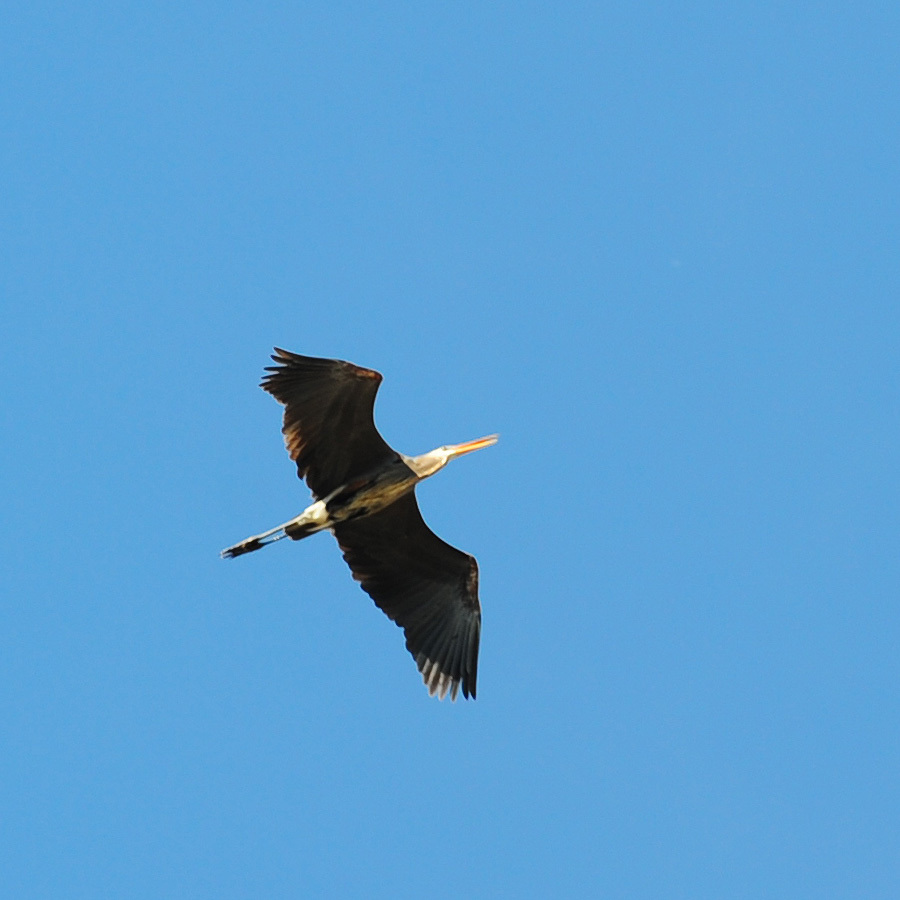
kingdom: Animalia
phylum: Chordata
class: Aves
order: Pelecaniformes
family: Ardeidae
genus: Ardea
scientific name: Ardea herodias
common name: Great blue heron
